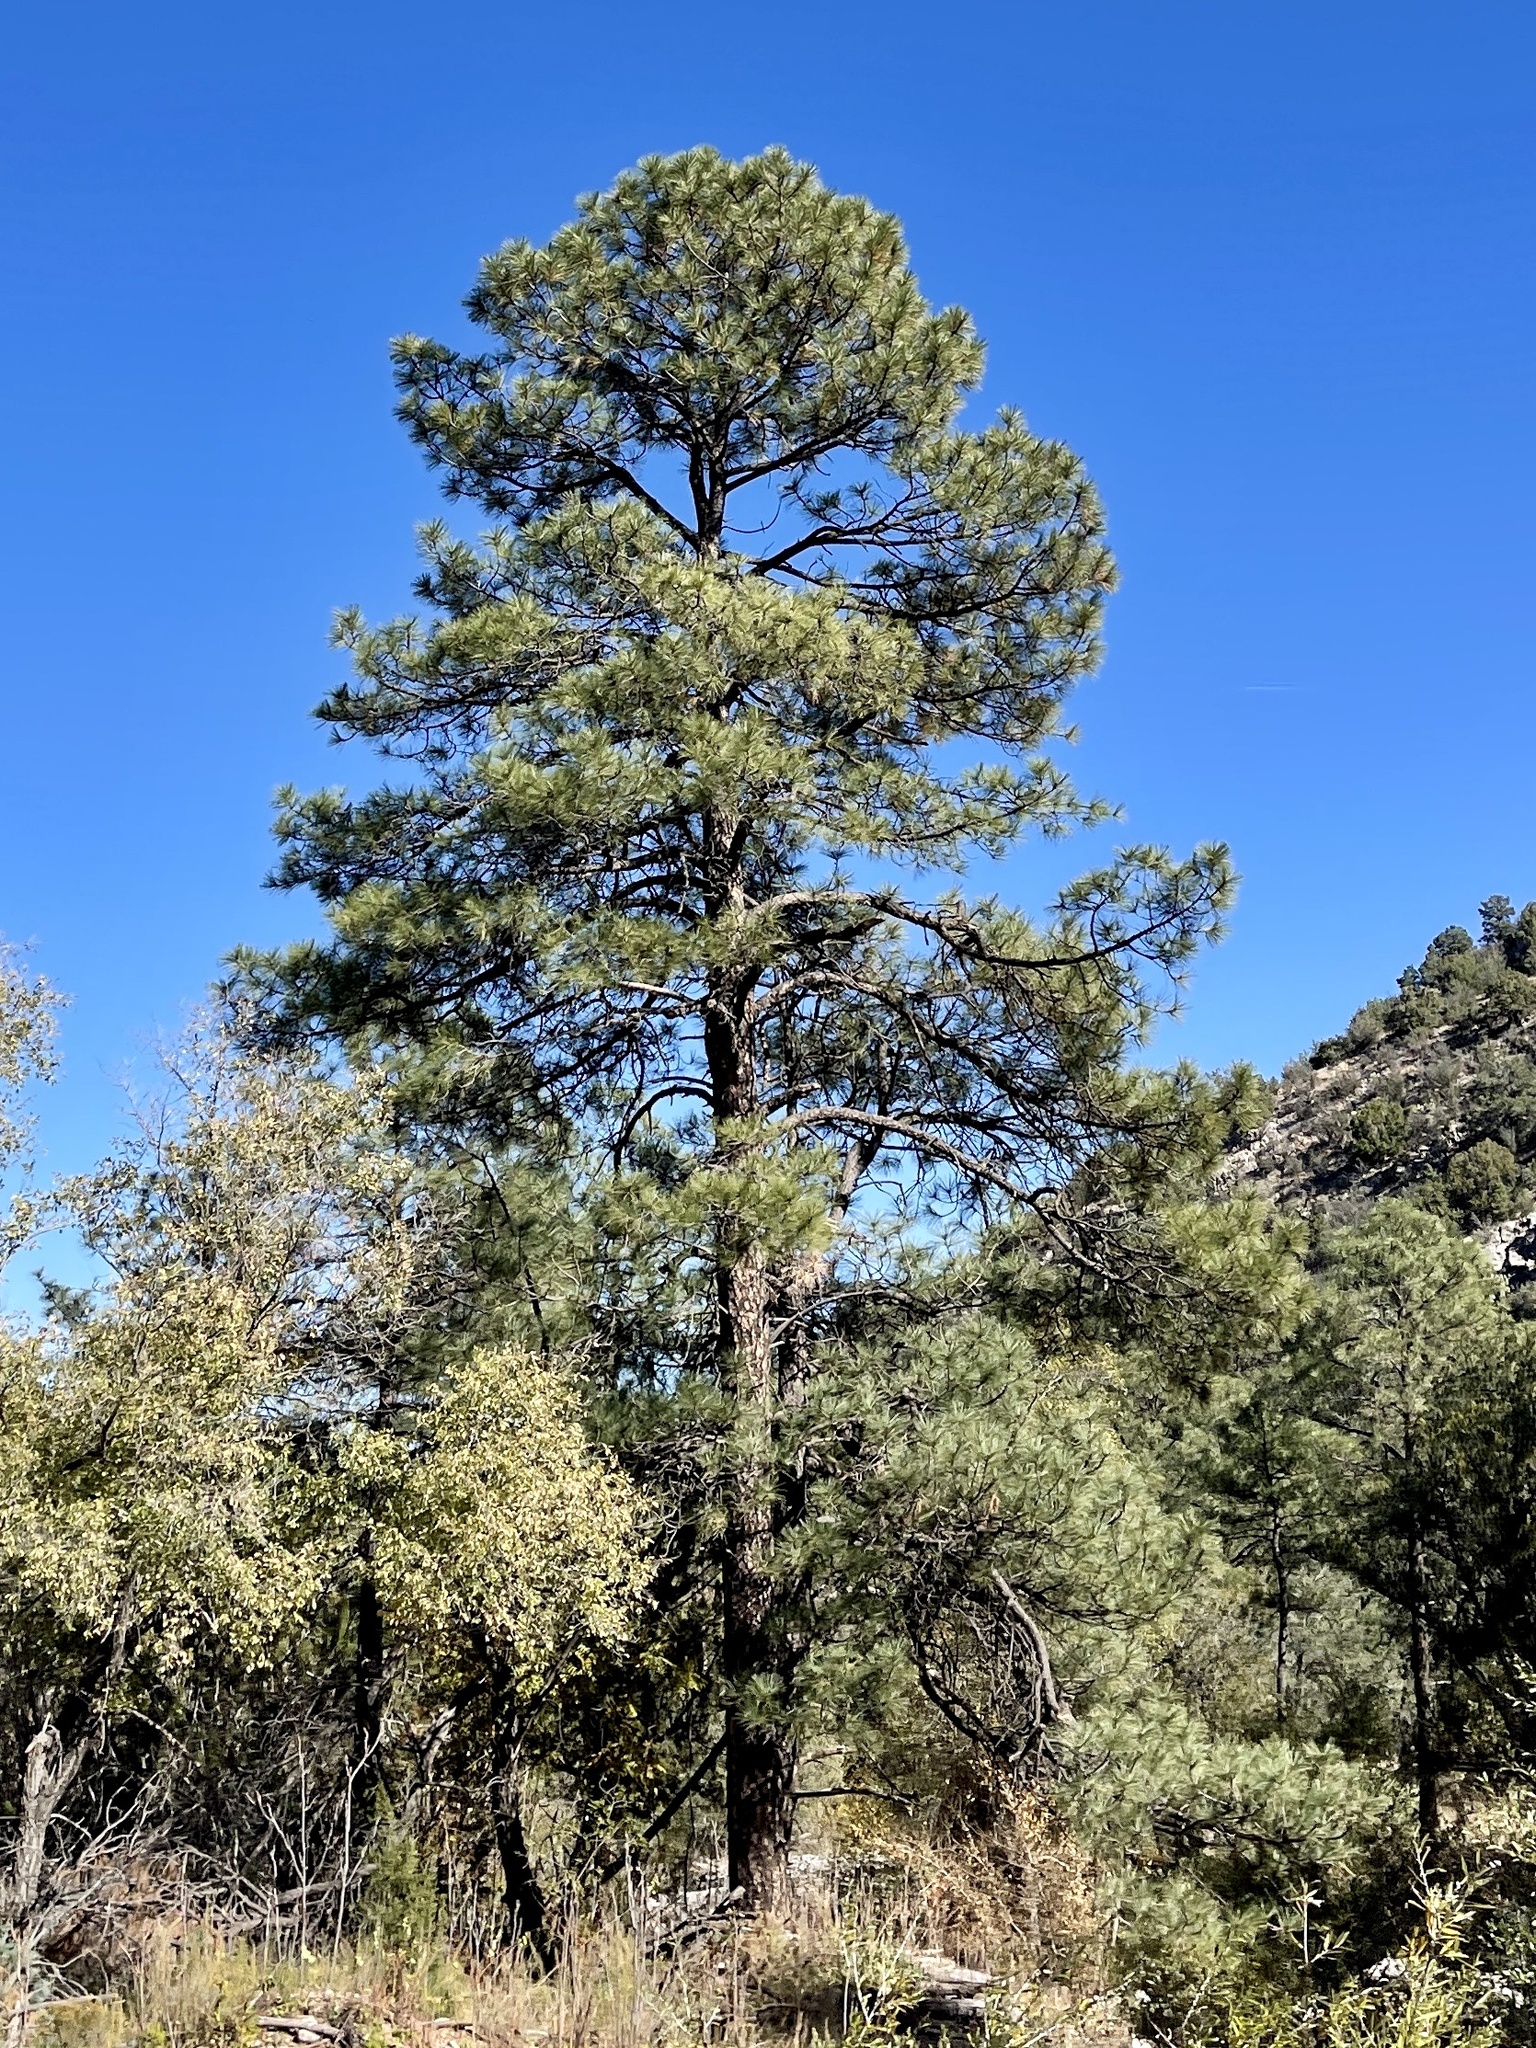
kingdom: Plantae
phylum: Tracheophyta
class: Pinopsida
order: Pinales
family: Pinaceae
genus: Pinus
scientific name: Pinus ponderosa
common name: Western yellow-pine
